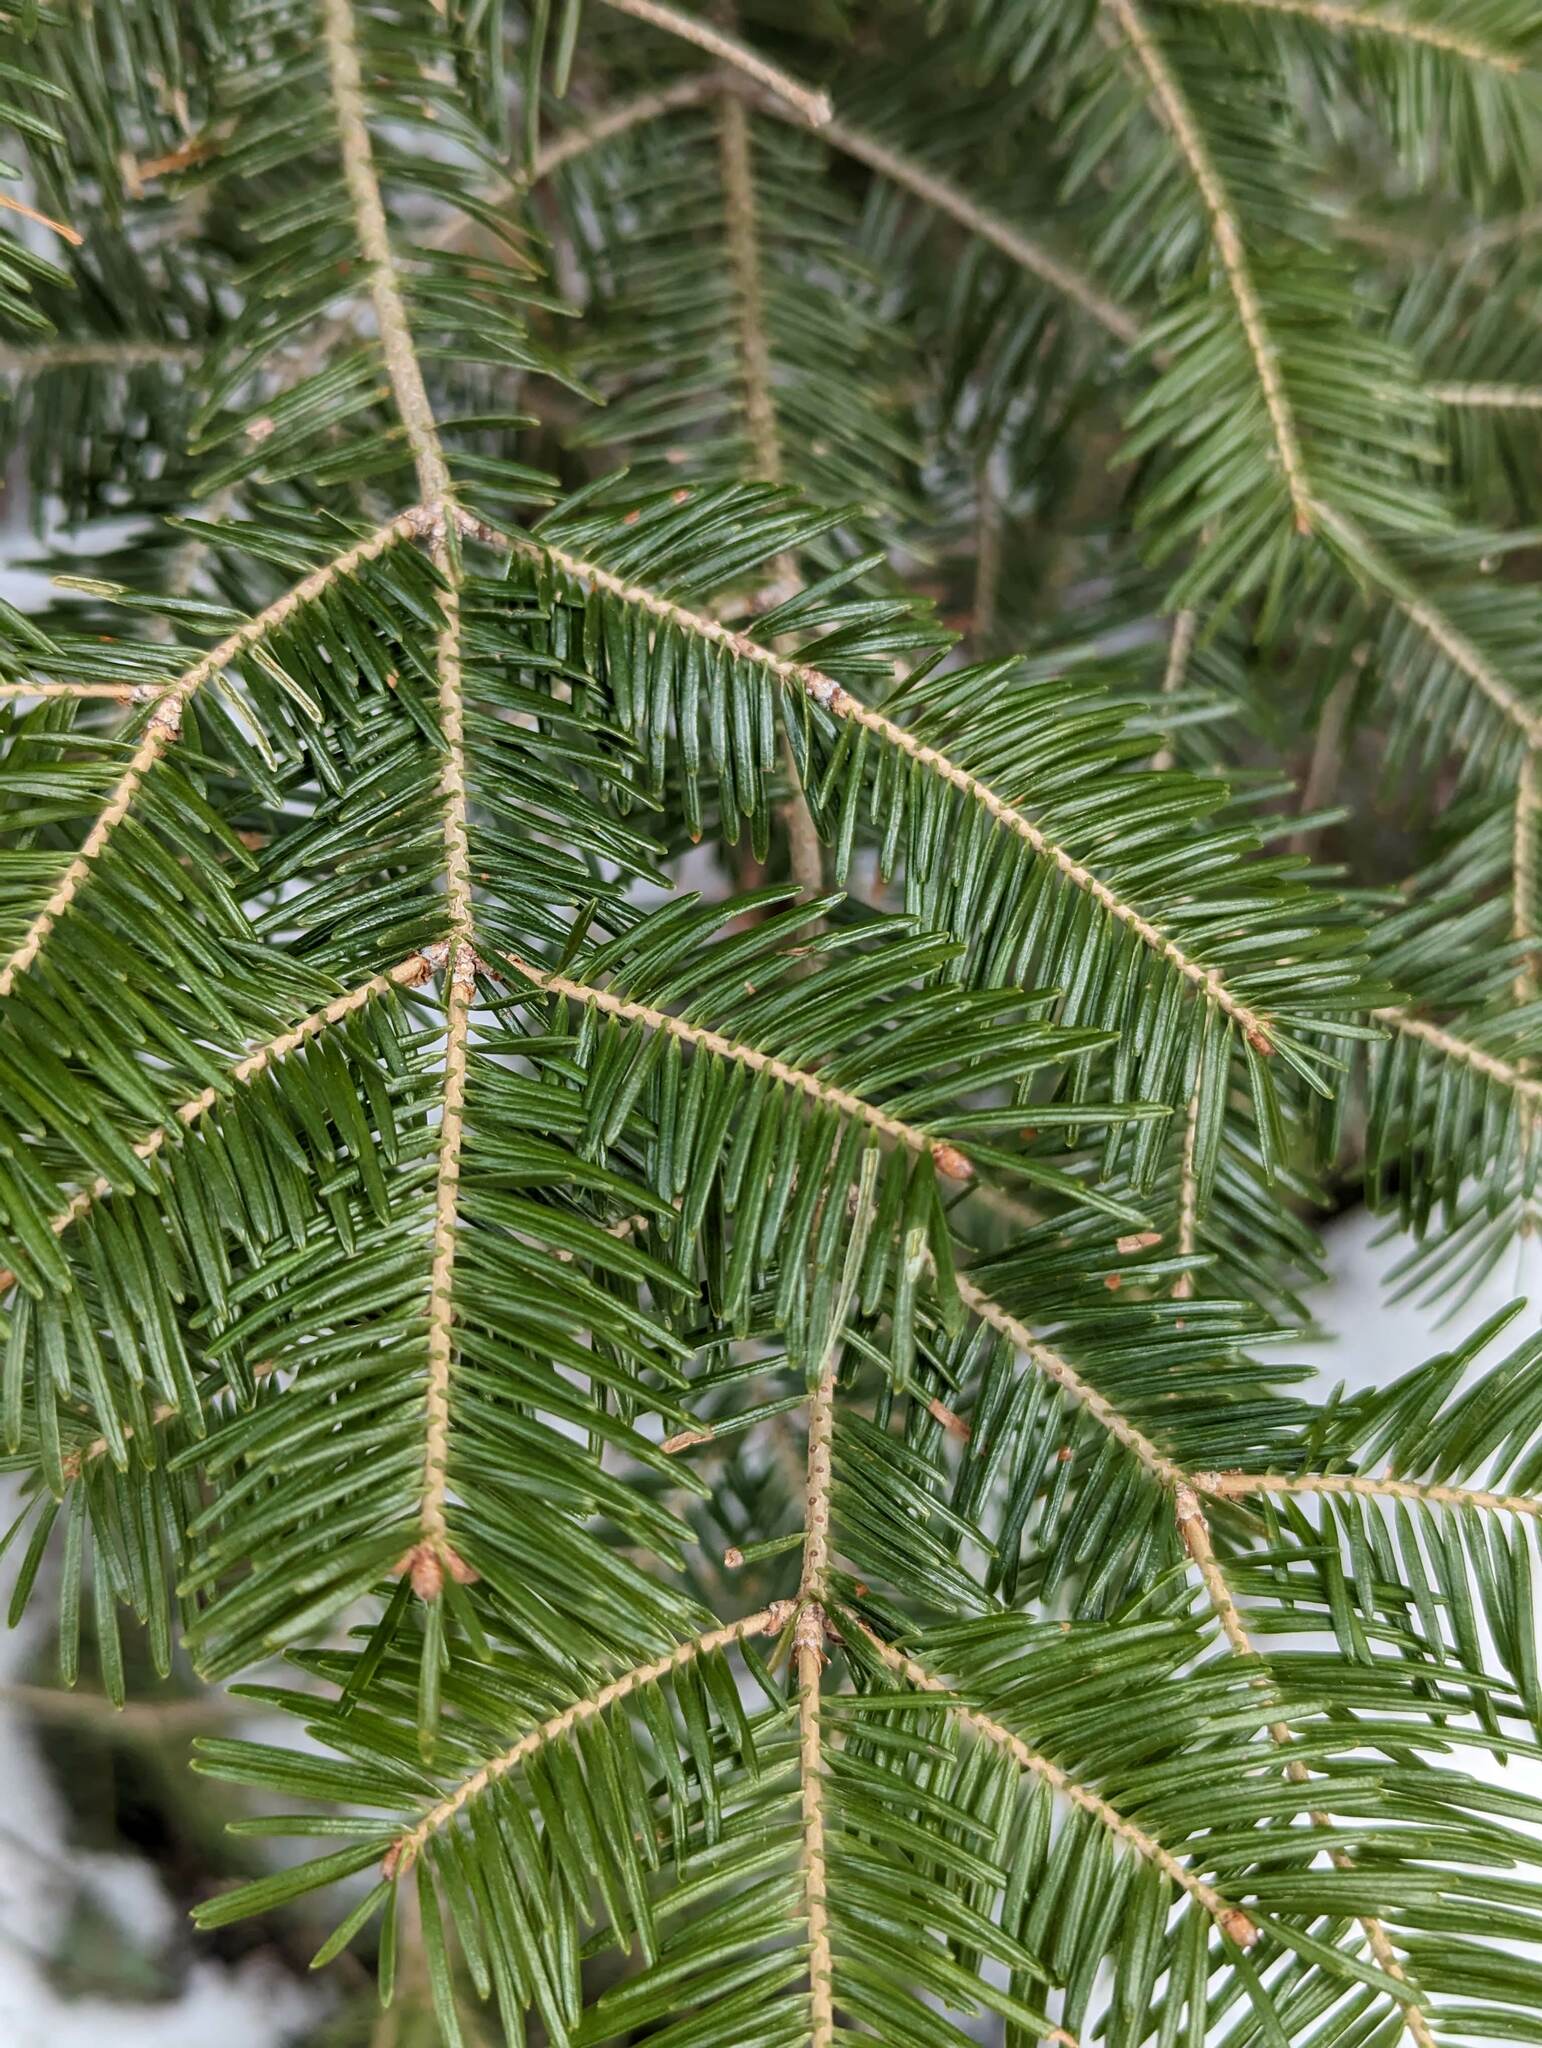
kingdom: Plantae
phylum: Tracheophyta
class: Pinopsida
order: Pinales
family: Pinaceae
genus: Abies
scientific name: Abies balsamea
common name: Balsam fir
